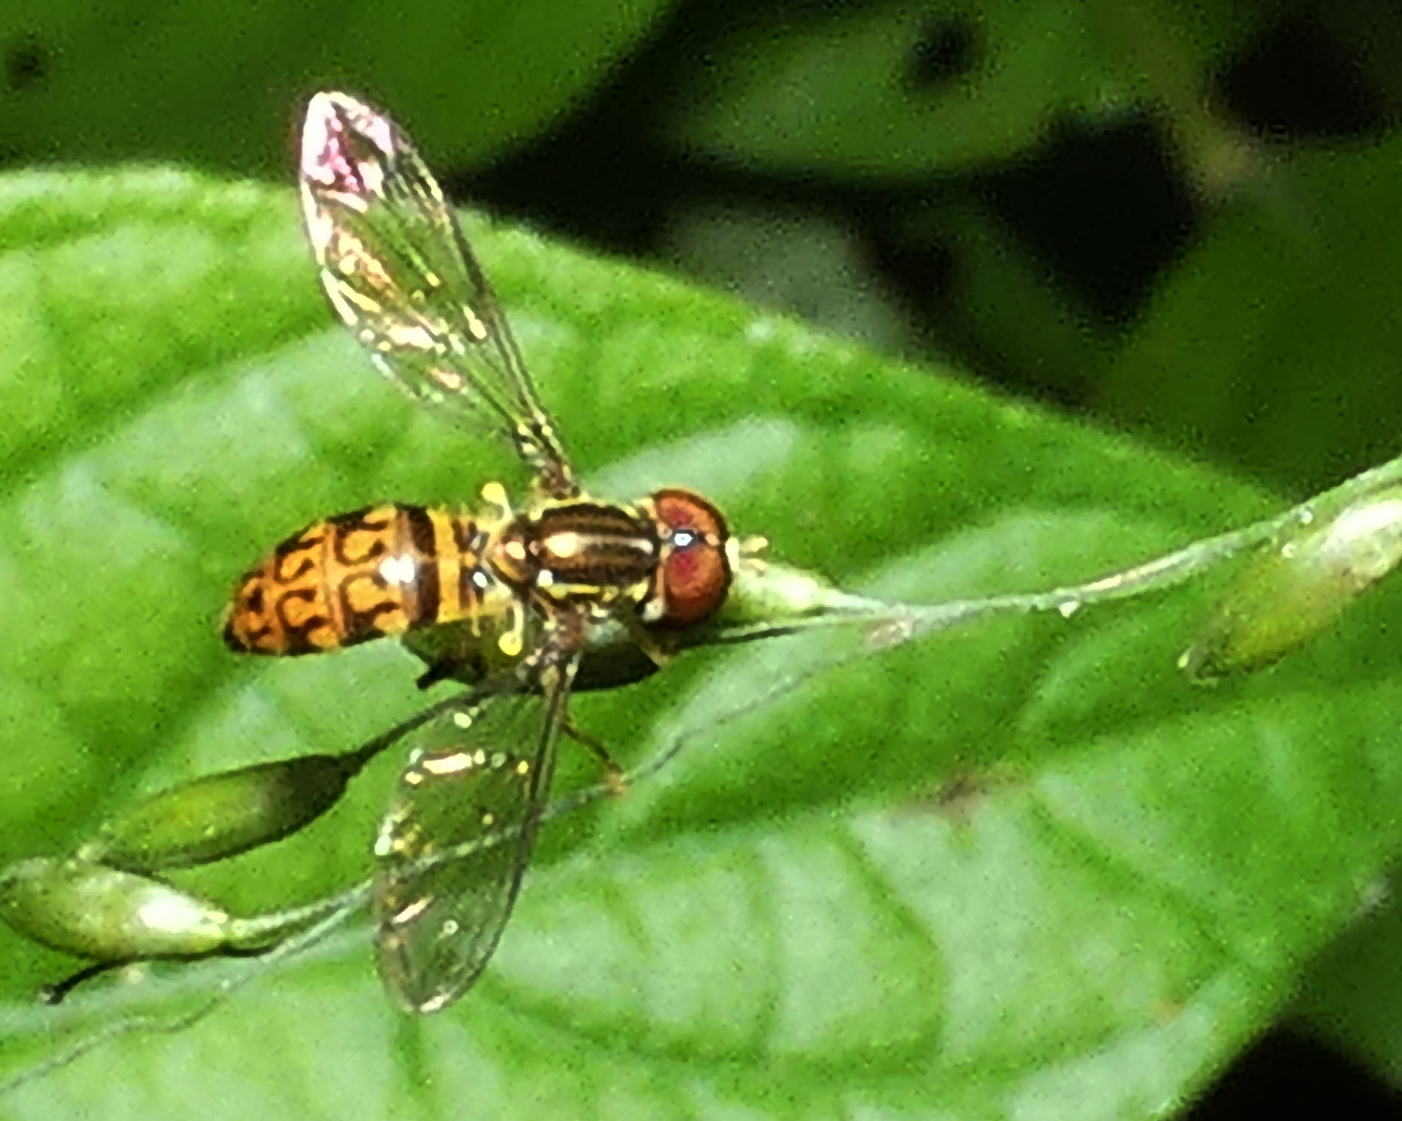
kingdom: Animalia
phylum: Arthropoda
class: Insecta
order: Diptera
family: Syrphidae
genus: Toxomerus
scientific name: Toxomerus pictus
